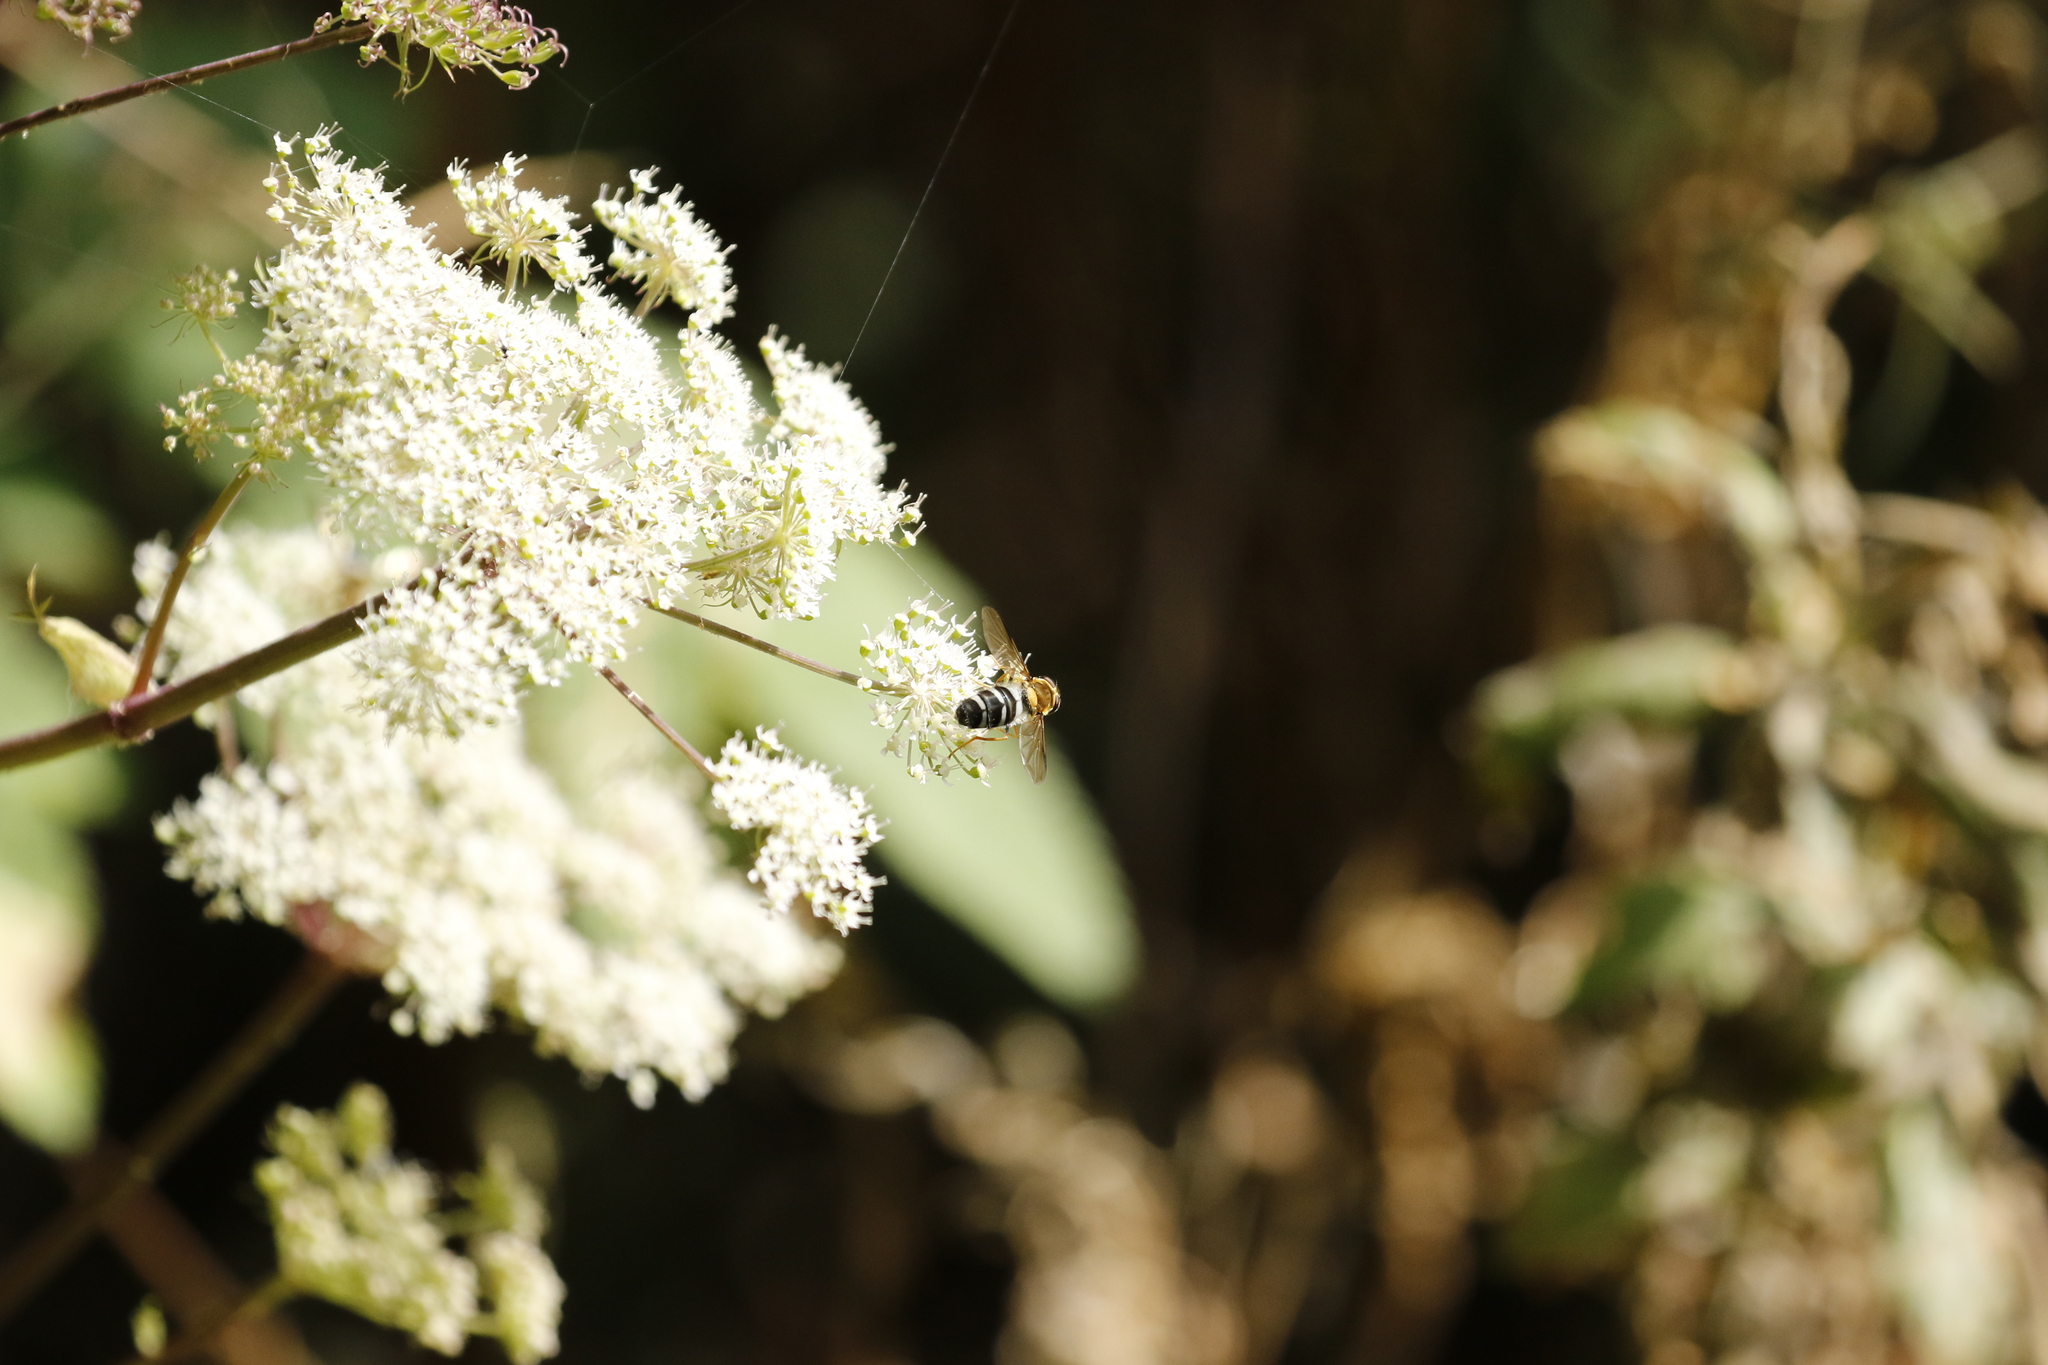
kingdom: Animalia
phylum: Arthropoda
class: Insecta
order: Diptera
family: Syrphidae
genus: Leucozona
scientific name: Leucozona glaucia
